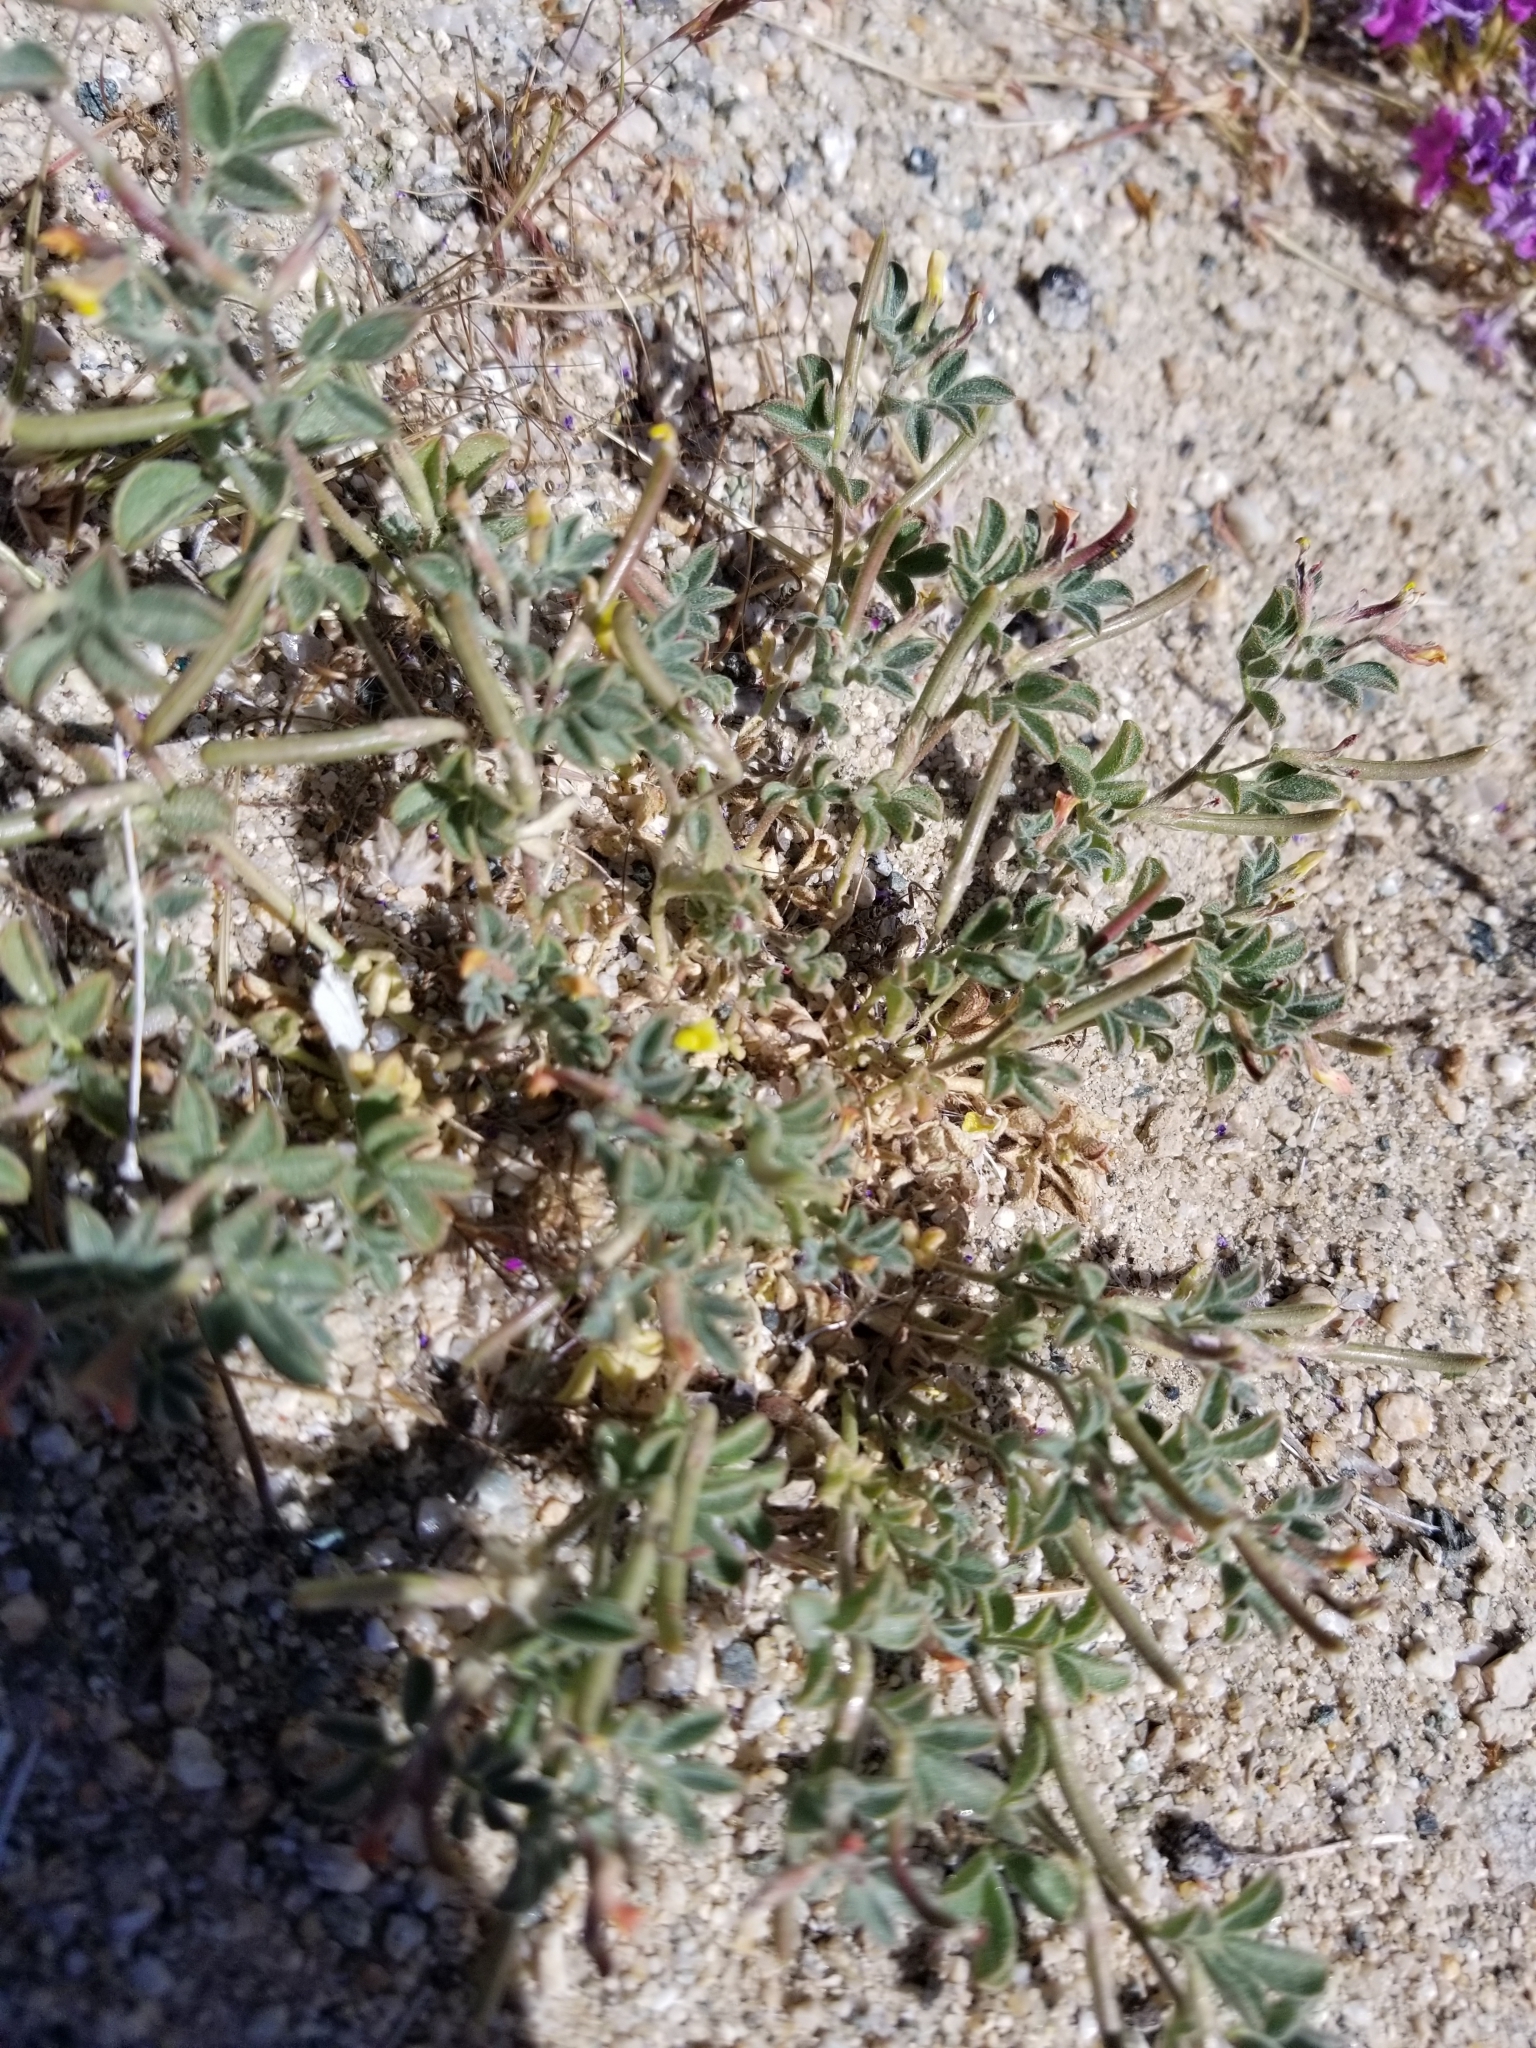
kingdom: Plantae
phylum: Tracheophyta
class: Magnoliopsida
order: Fabales
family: Fabaceae
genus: Acmispon
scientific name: Acmispon strigosus
